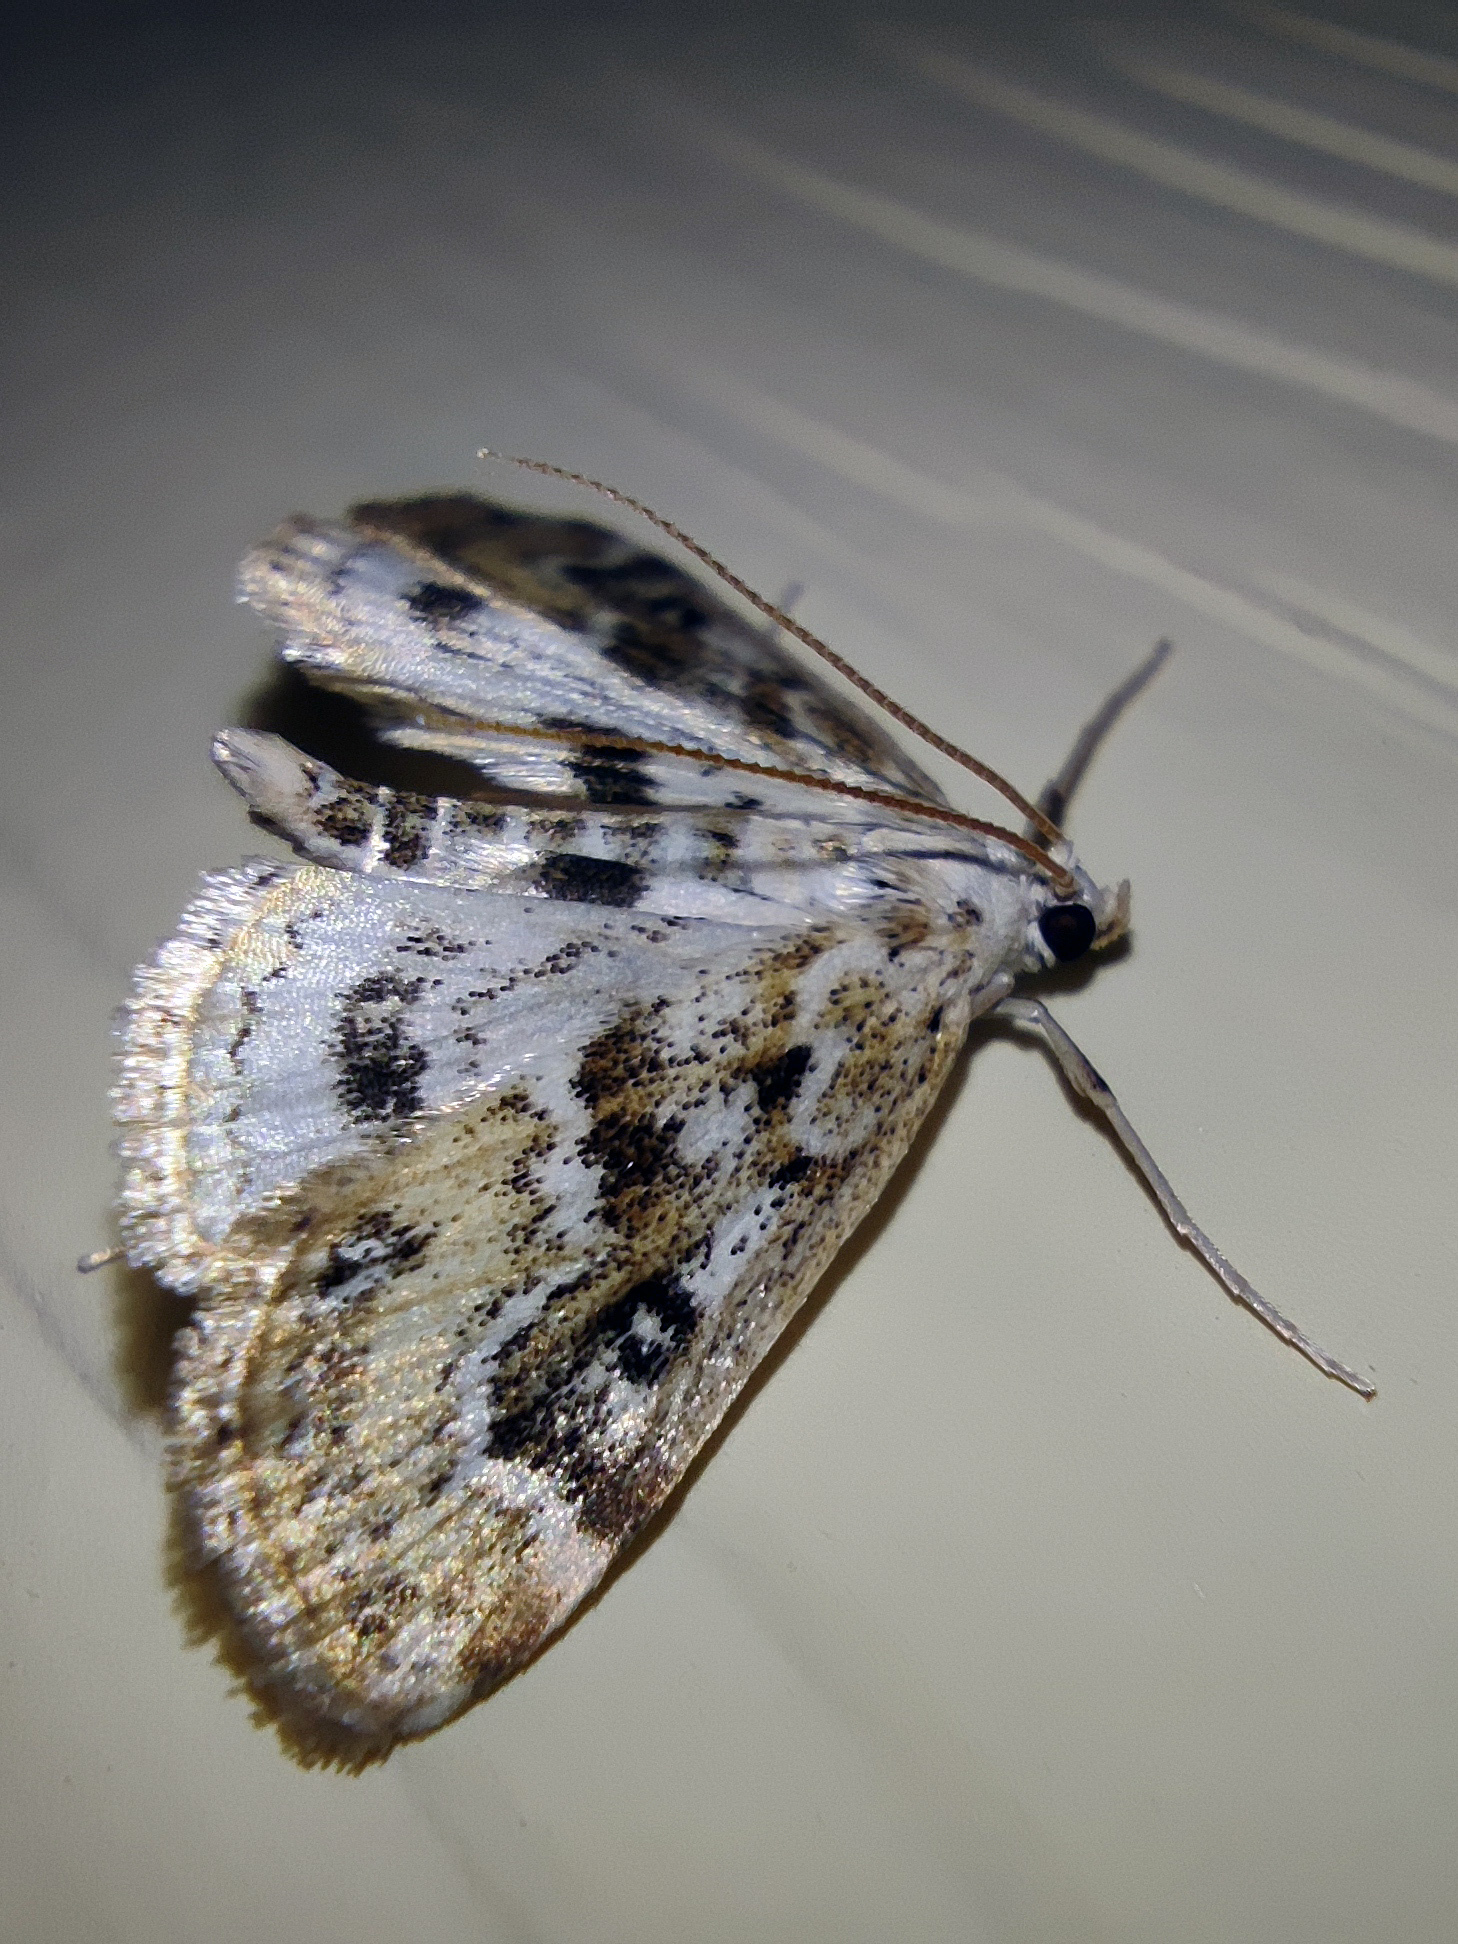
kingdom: Animalia
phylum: Arthropoda
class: Insecta
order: Lepidoptera
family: Crambidae
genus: Parapoynx
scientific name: Parapoynx stratiotata
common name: Ringed china-mark
